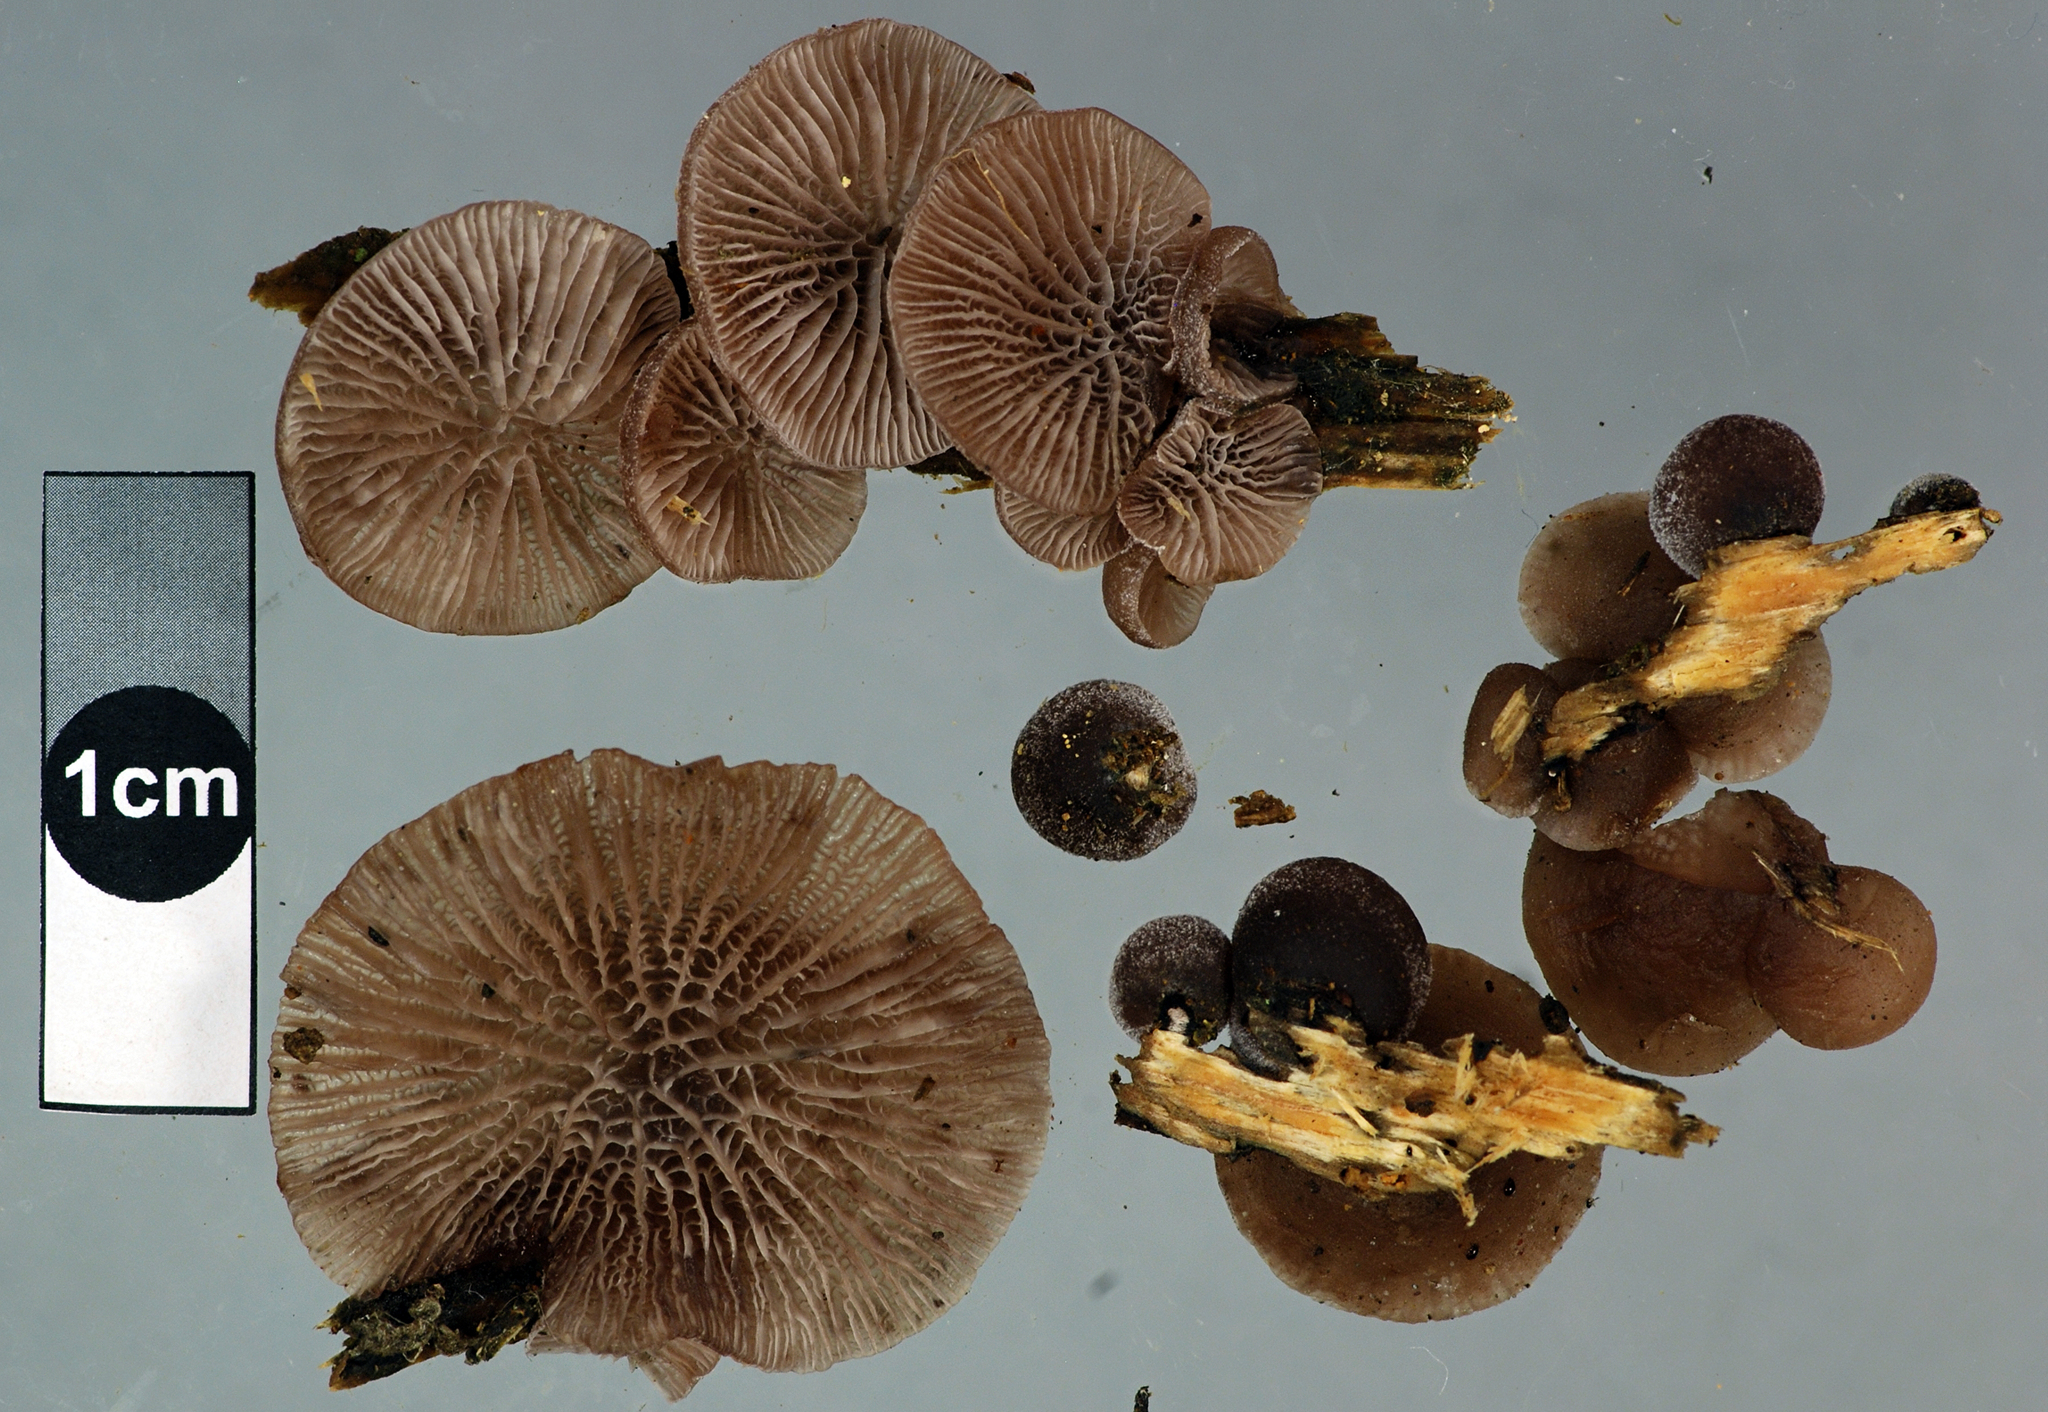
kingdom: Fungi
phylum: Basidiomycota
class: Agaricomycetes
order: Agaricales
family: Pleurotaceae
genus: Resupinatus
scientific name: Resupinatus vinosolividus
